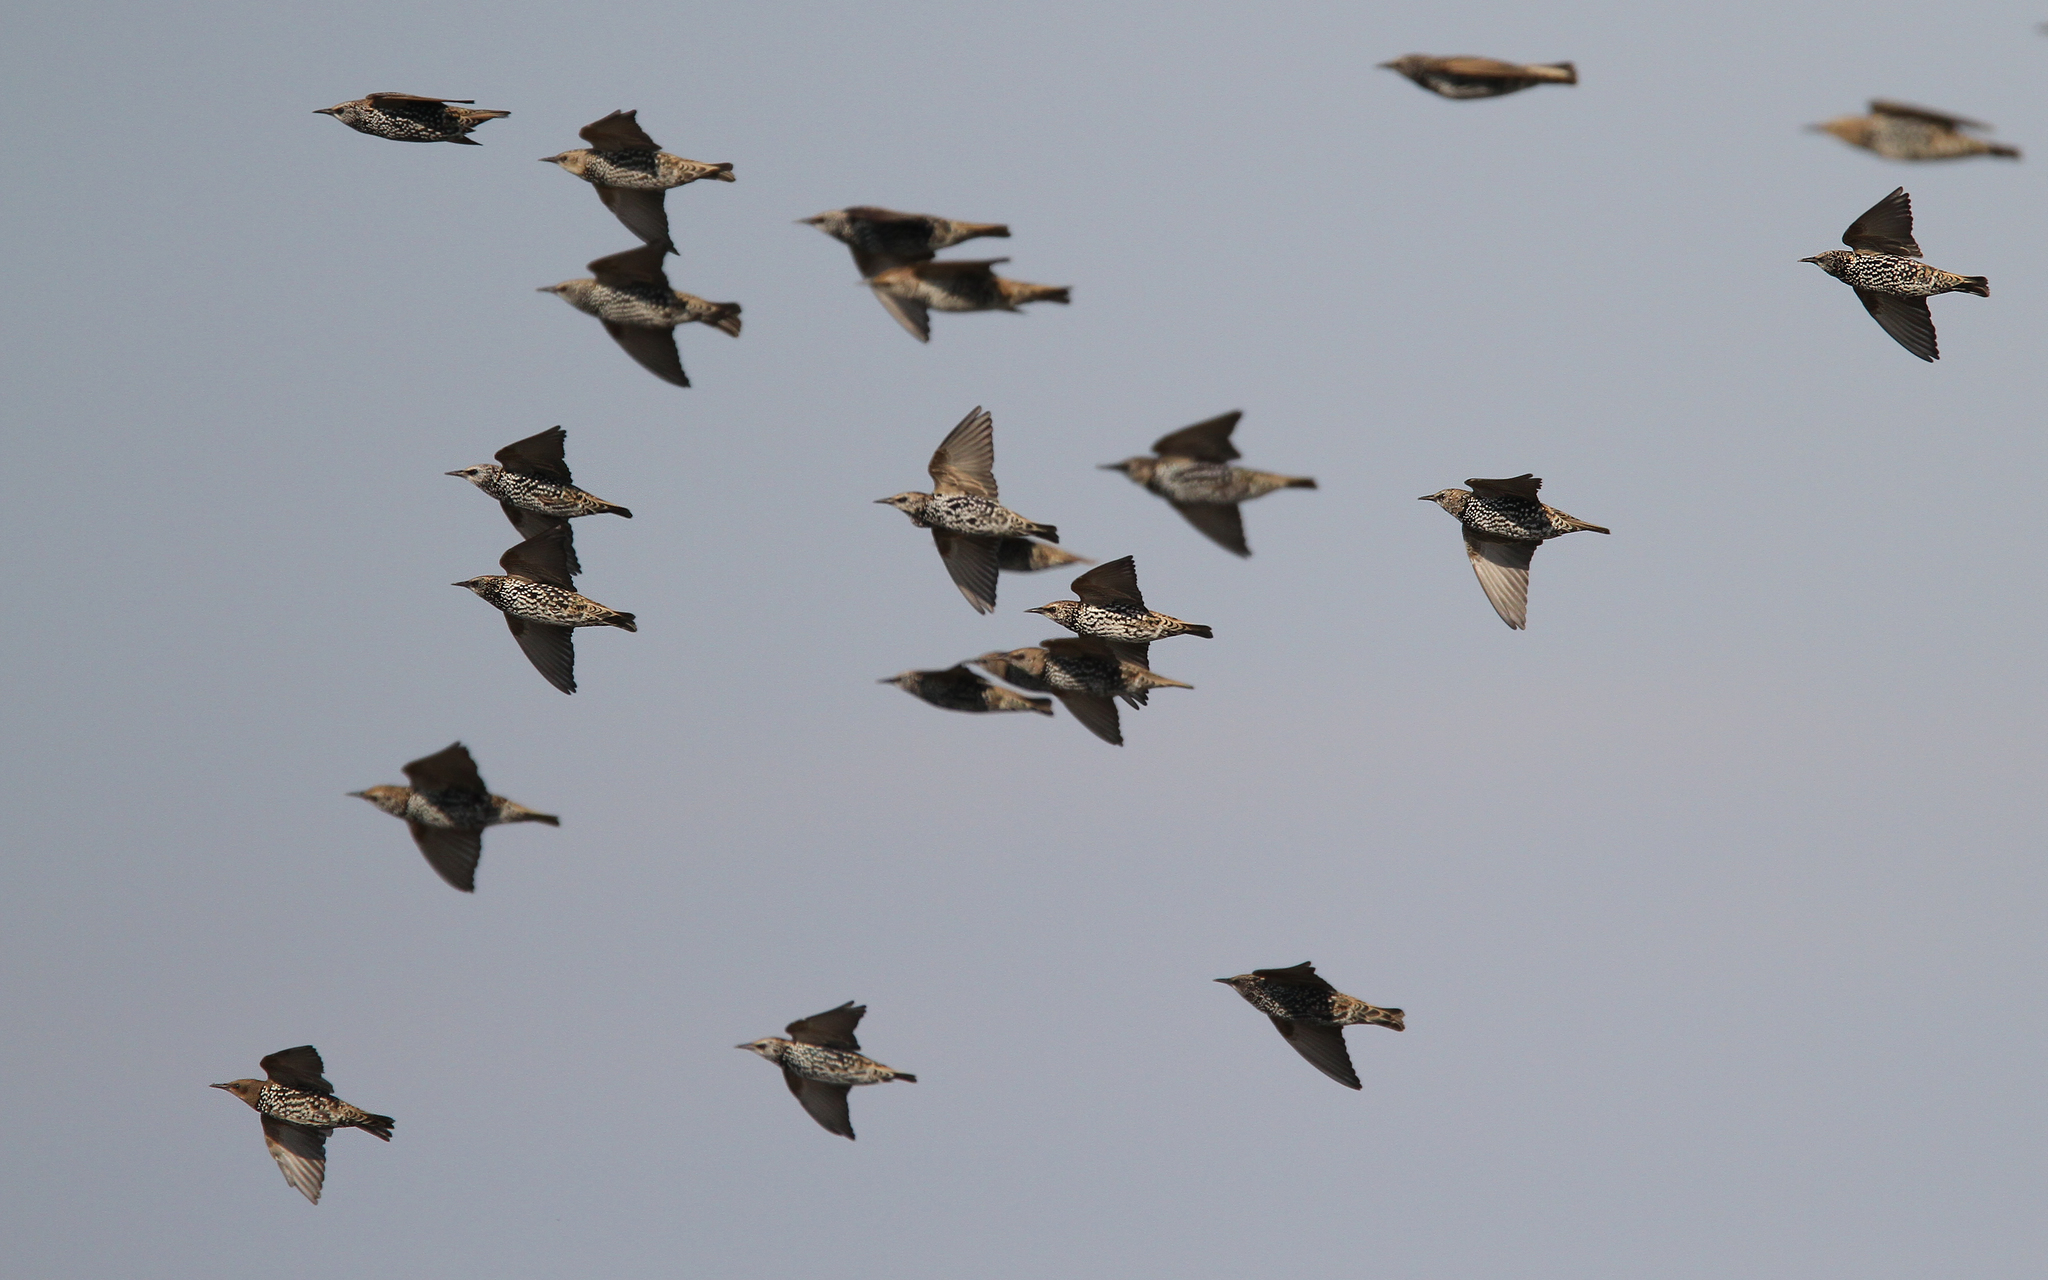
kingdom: Animalia
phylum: Chordata
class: Aves
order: Passeriformes
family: Sturnidae
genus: Sturnus
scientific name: Sturnus vulgaris
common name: Common starling
